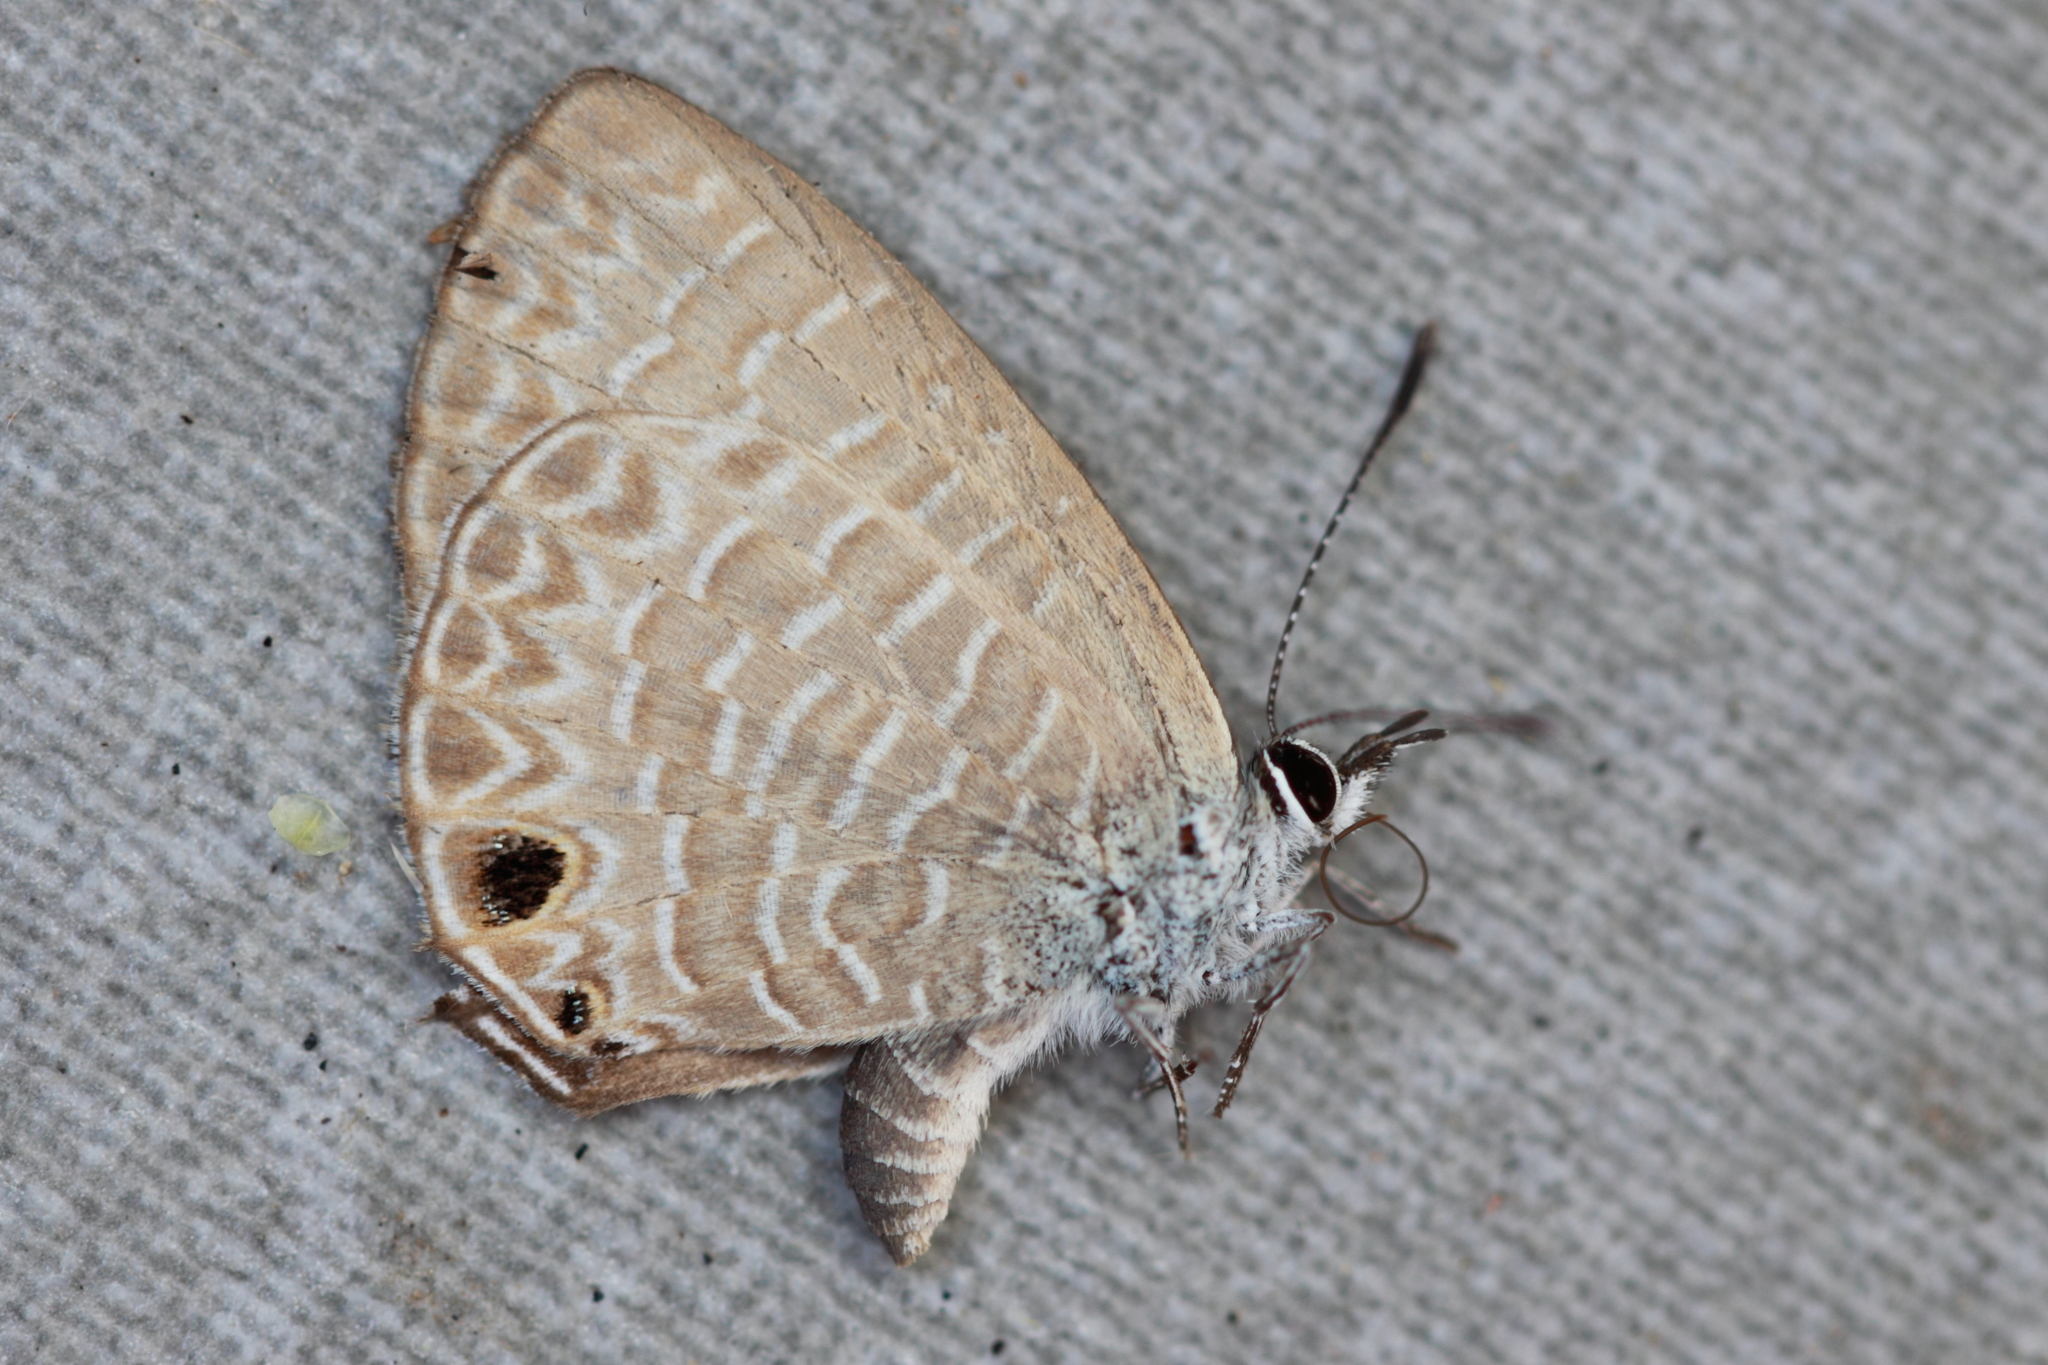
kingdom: Animalia
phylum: Arthropoda
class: Insecta
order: Lepidoptera
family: Lycaenidae
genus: Nacaduba
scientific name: Nacaduba berenice
